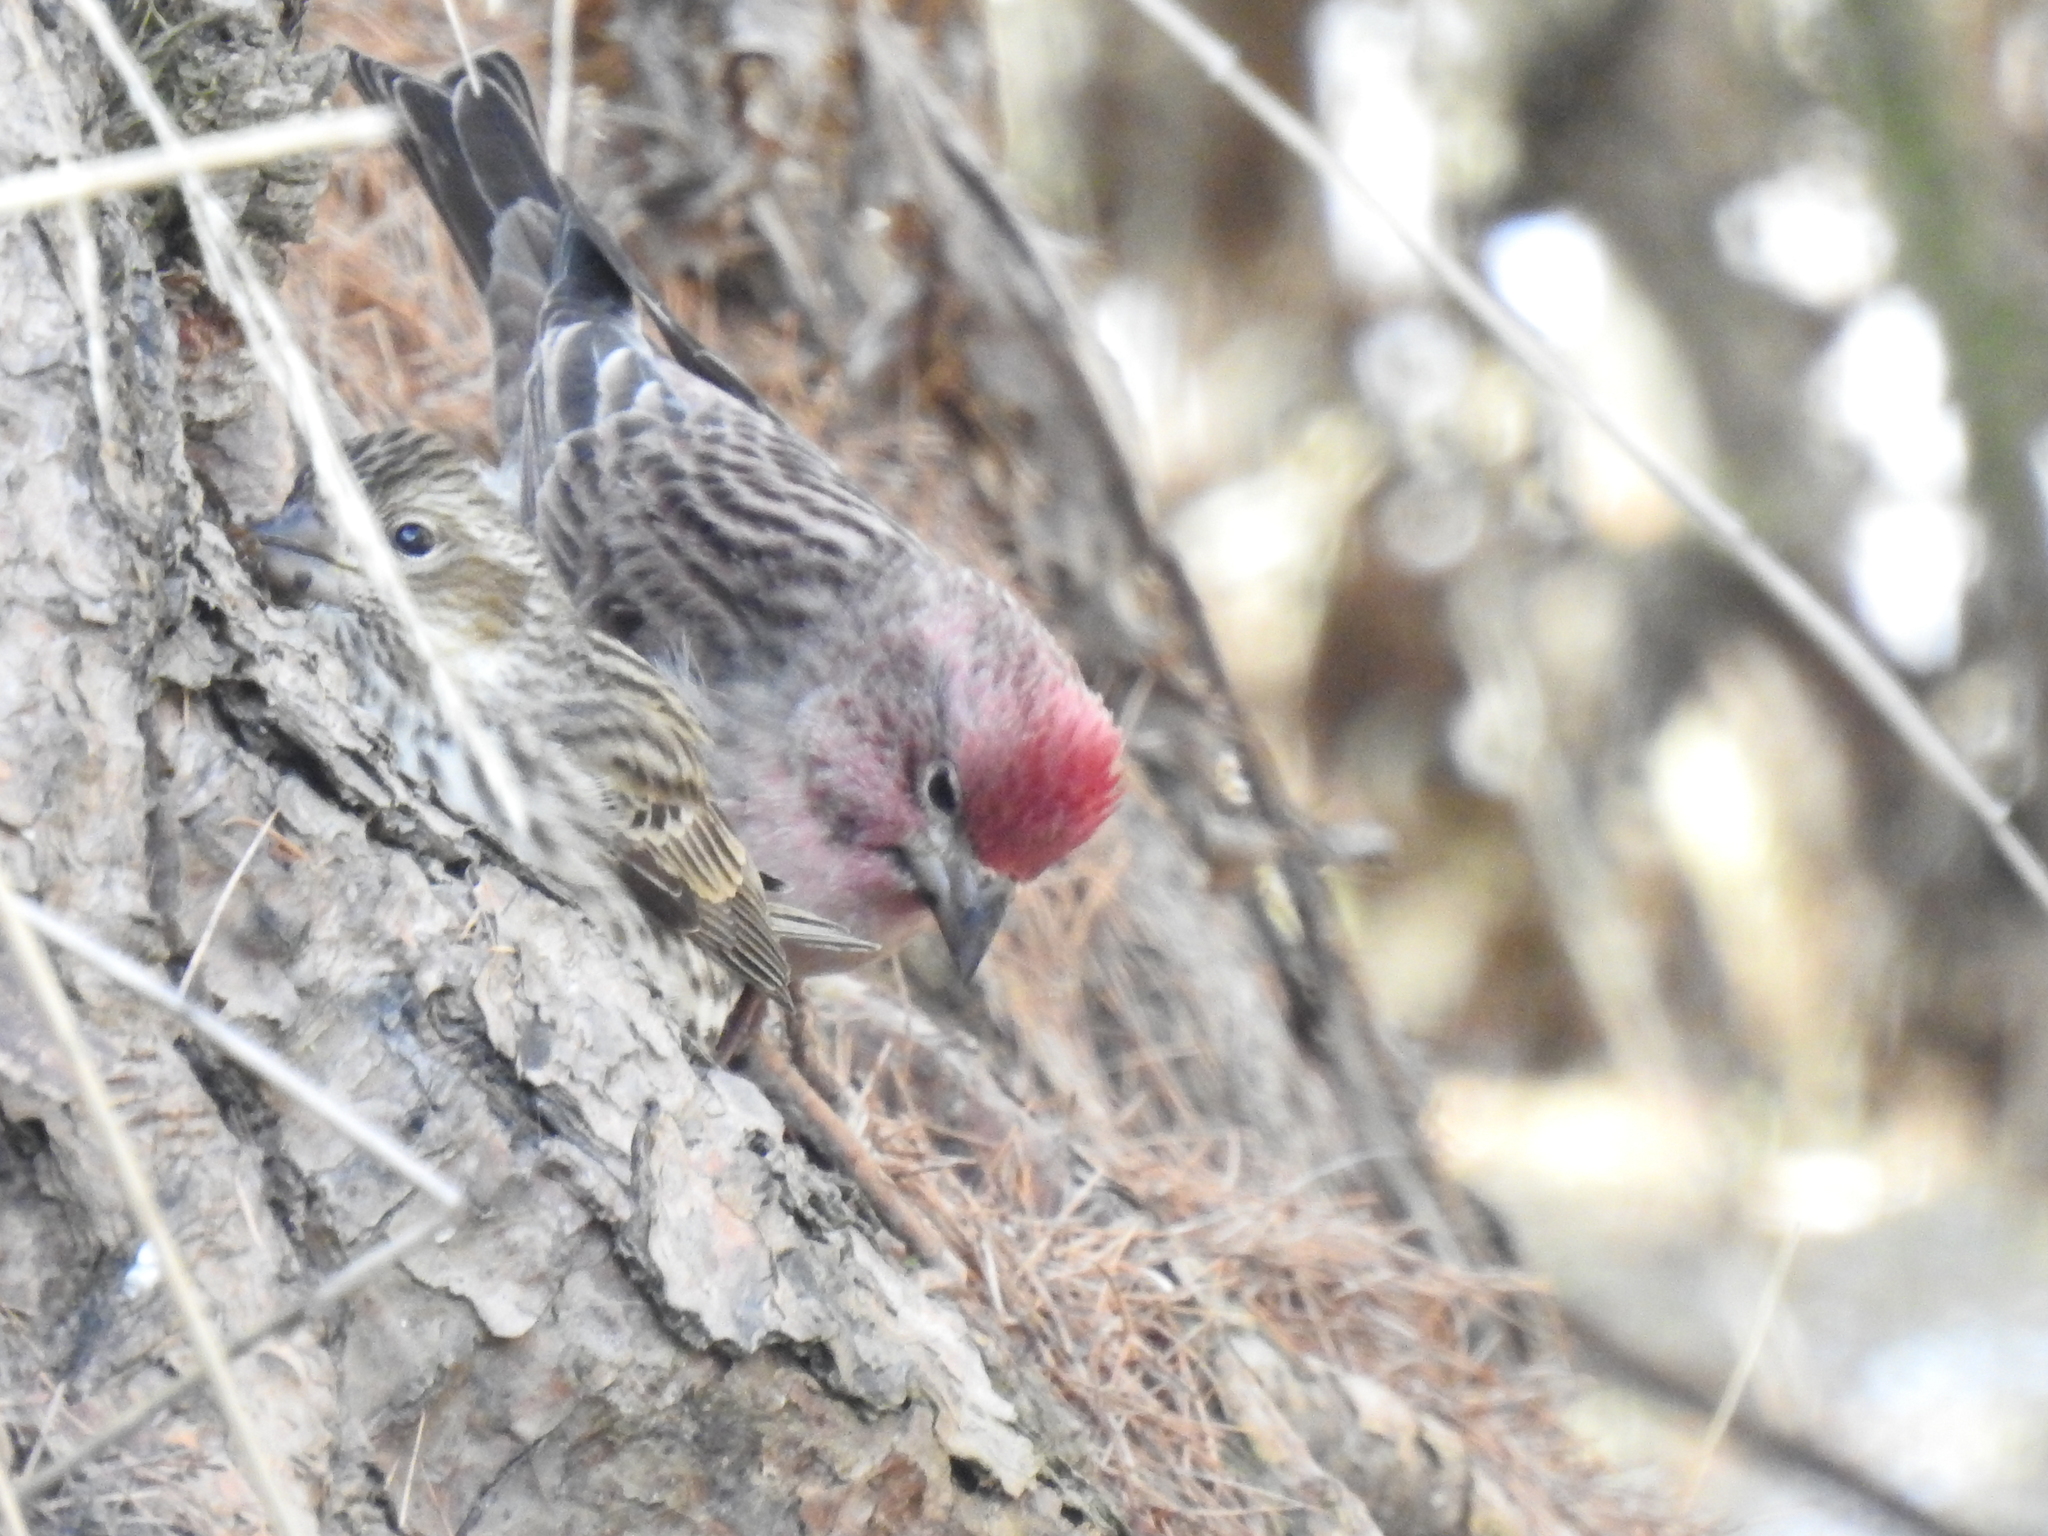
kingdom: Animalia
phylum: Chordata
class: Aves
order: Passeriformes
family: Fringillidae
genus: Haemorhous
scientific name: Haemorhous cassinii
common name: Cassin's finch
